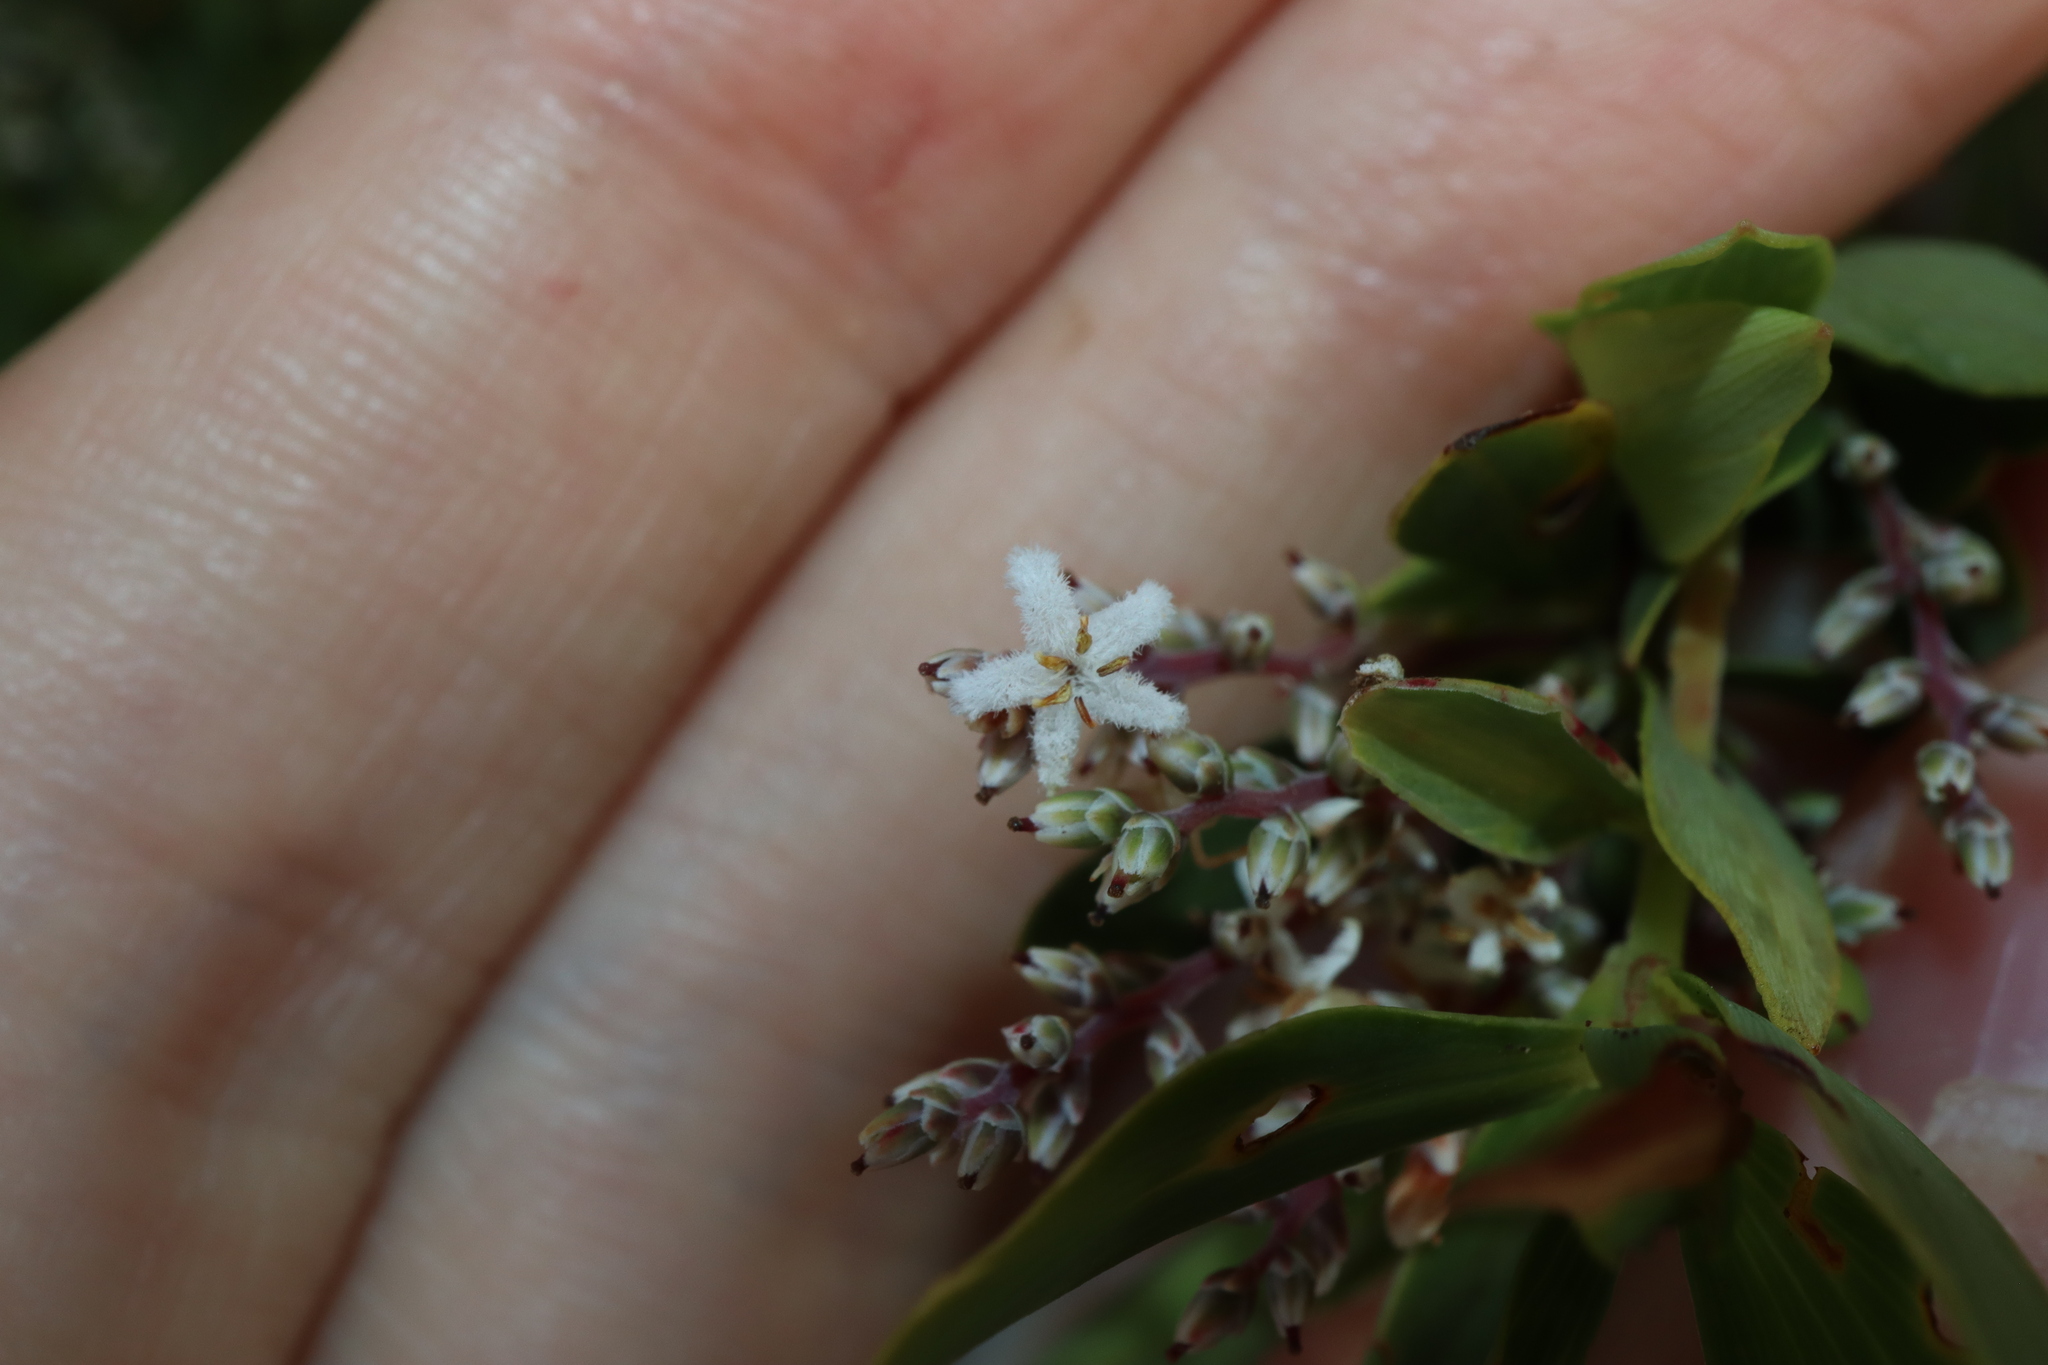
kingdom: Plantae
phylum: Tracheophyta
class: Magnoliopsida
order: Ericales
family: Ericaceae
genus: Leptecophylla
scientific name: Leptecophylla parvifolia
